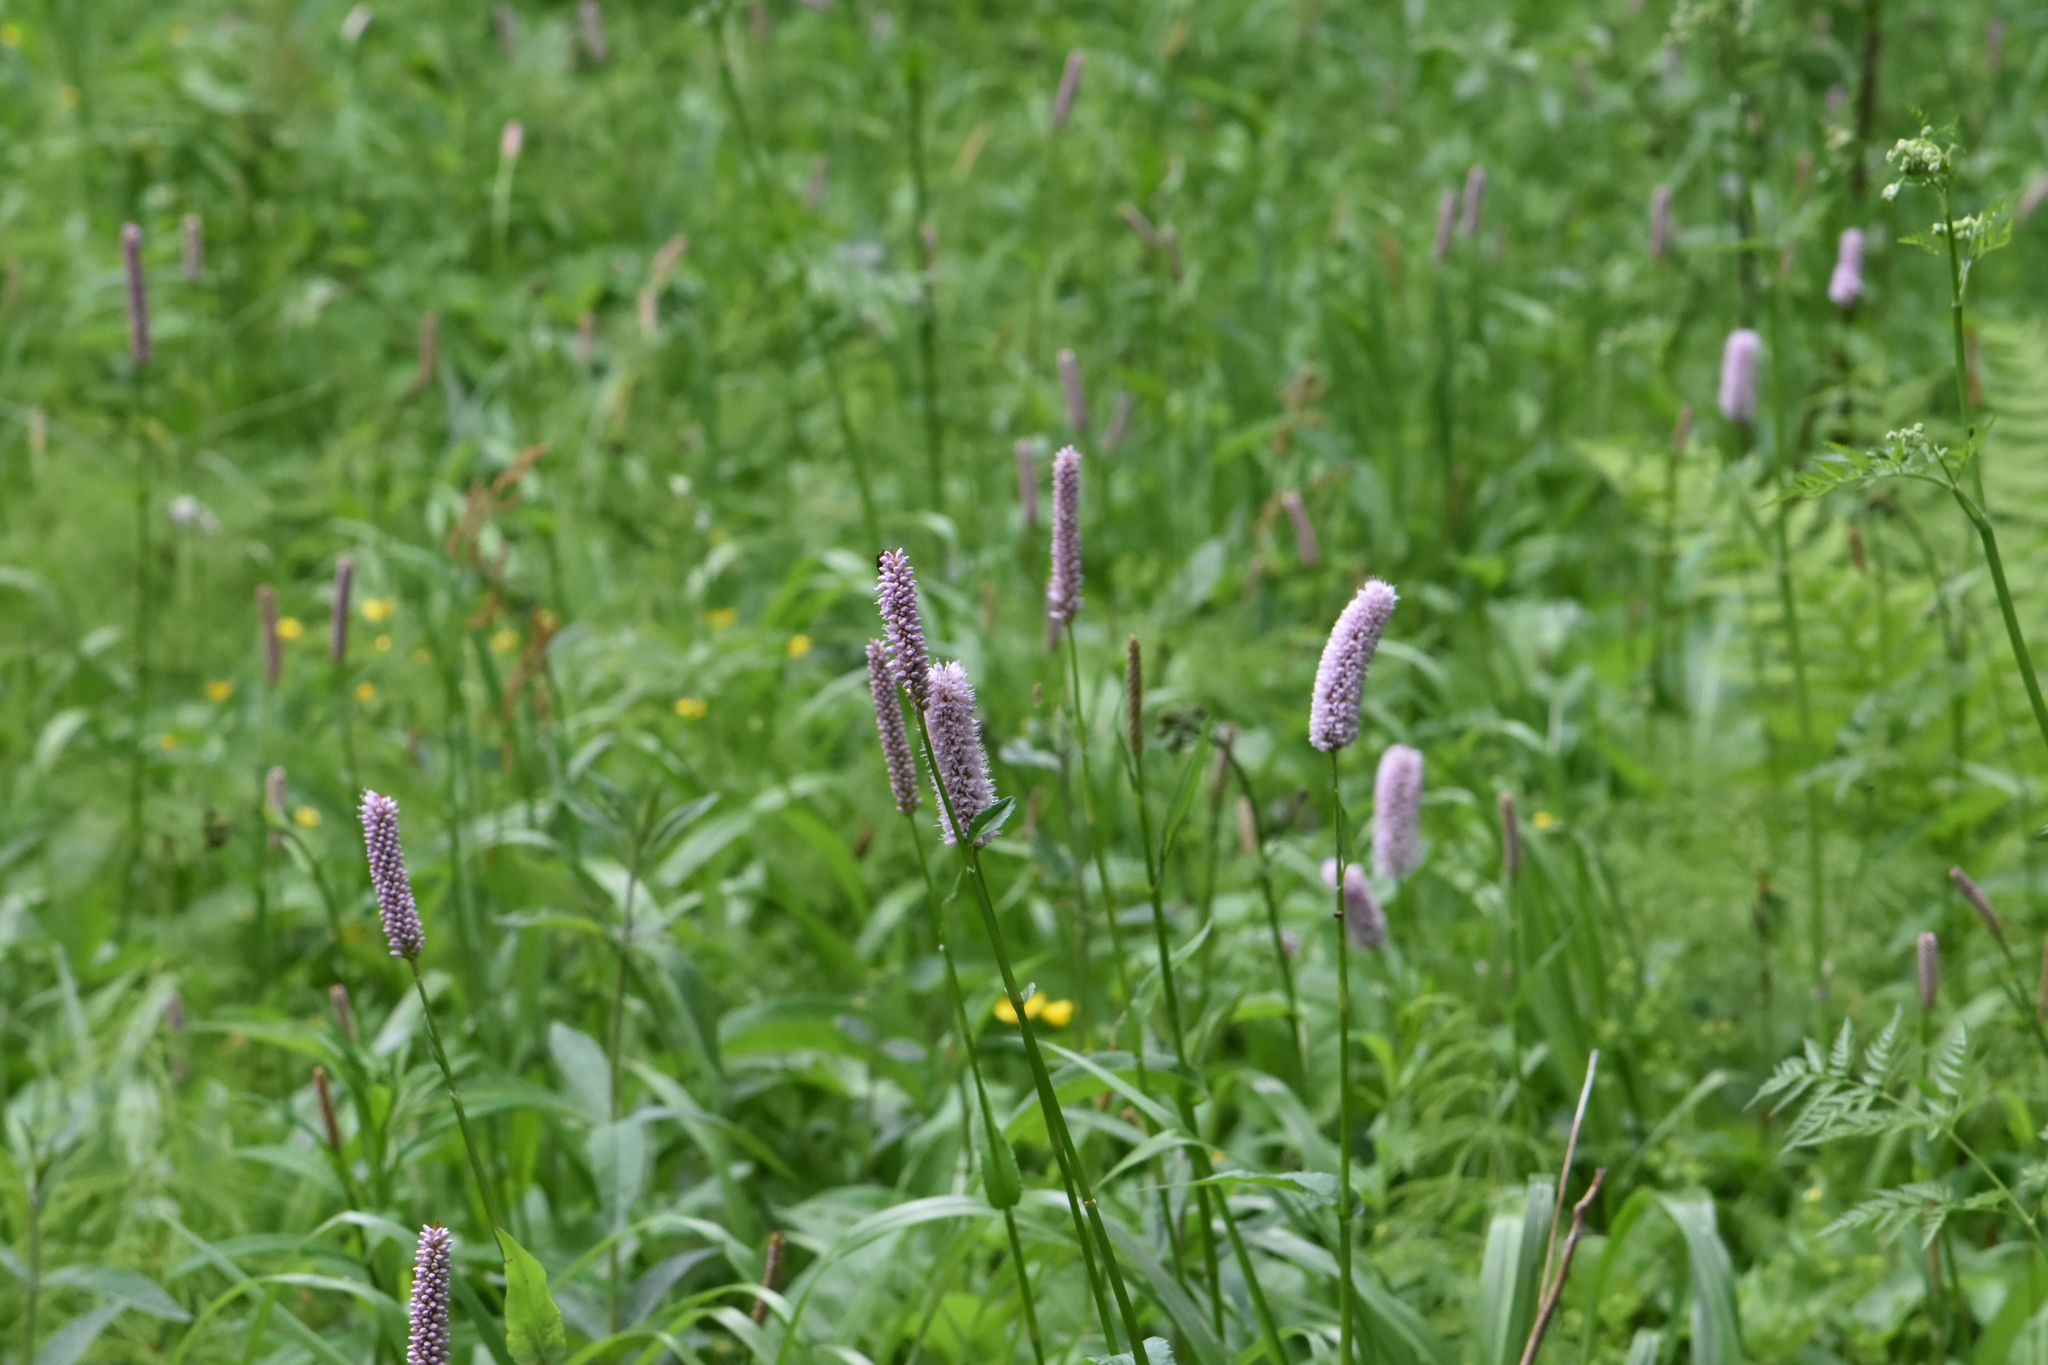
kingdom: Plantae
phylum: Tracheophyta
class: Magnoliopsida
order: Caryophyllales
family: Polygonaceae
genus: Bistorta
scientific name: Bistorta officinalis
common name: Common bistort
